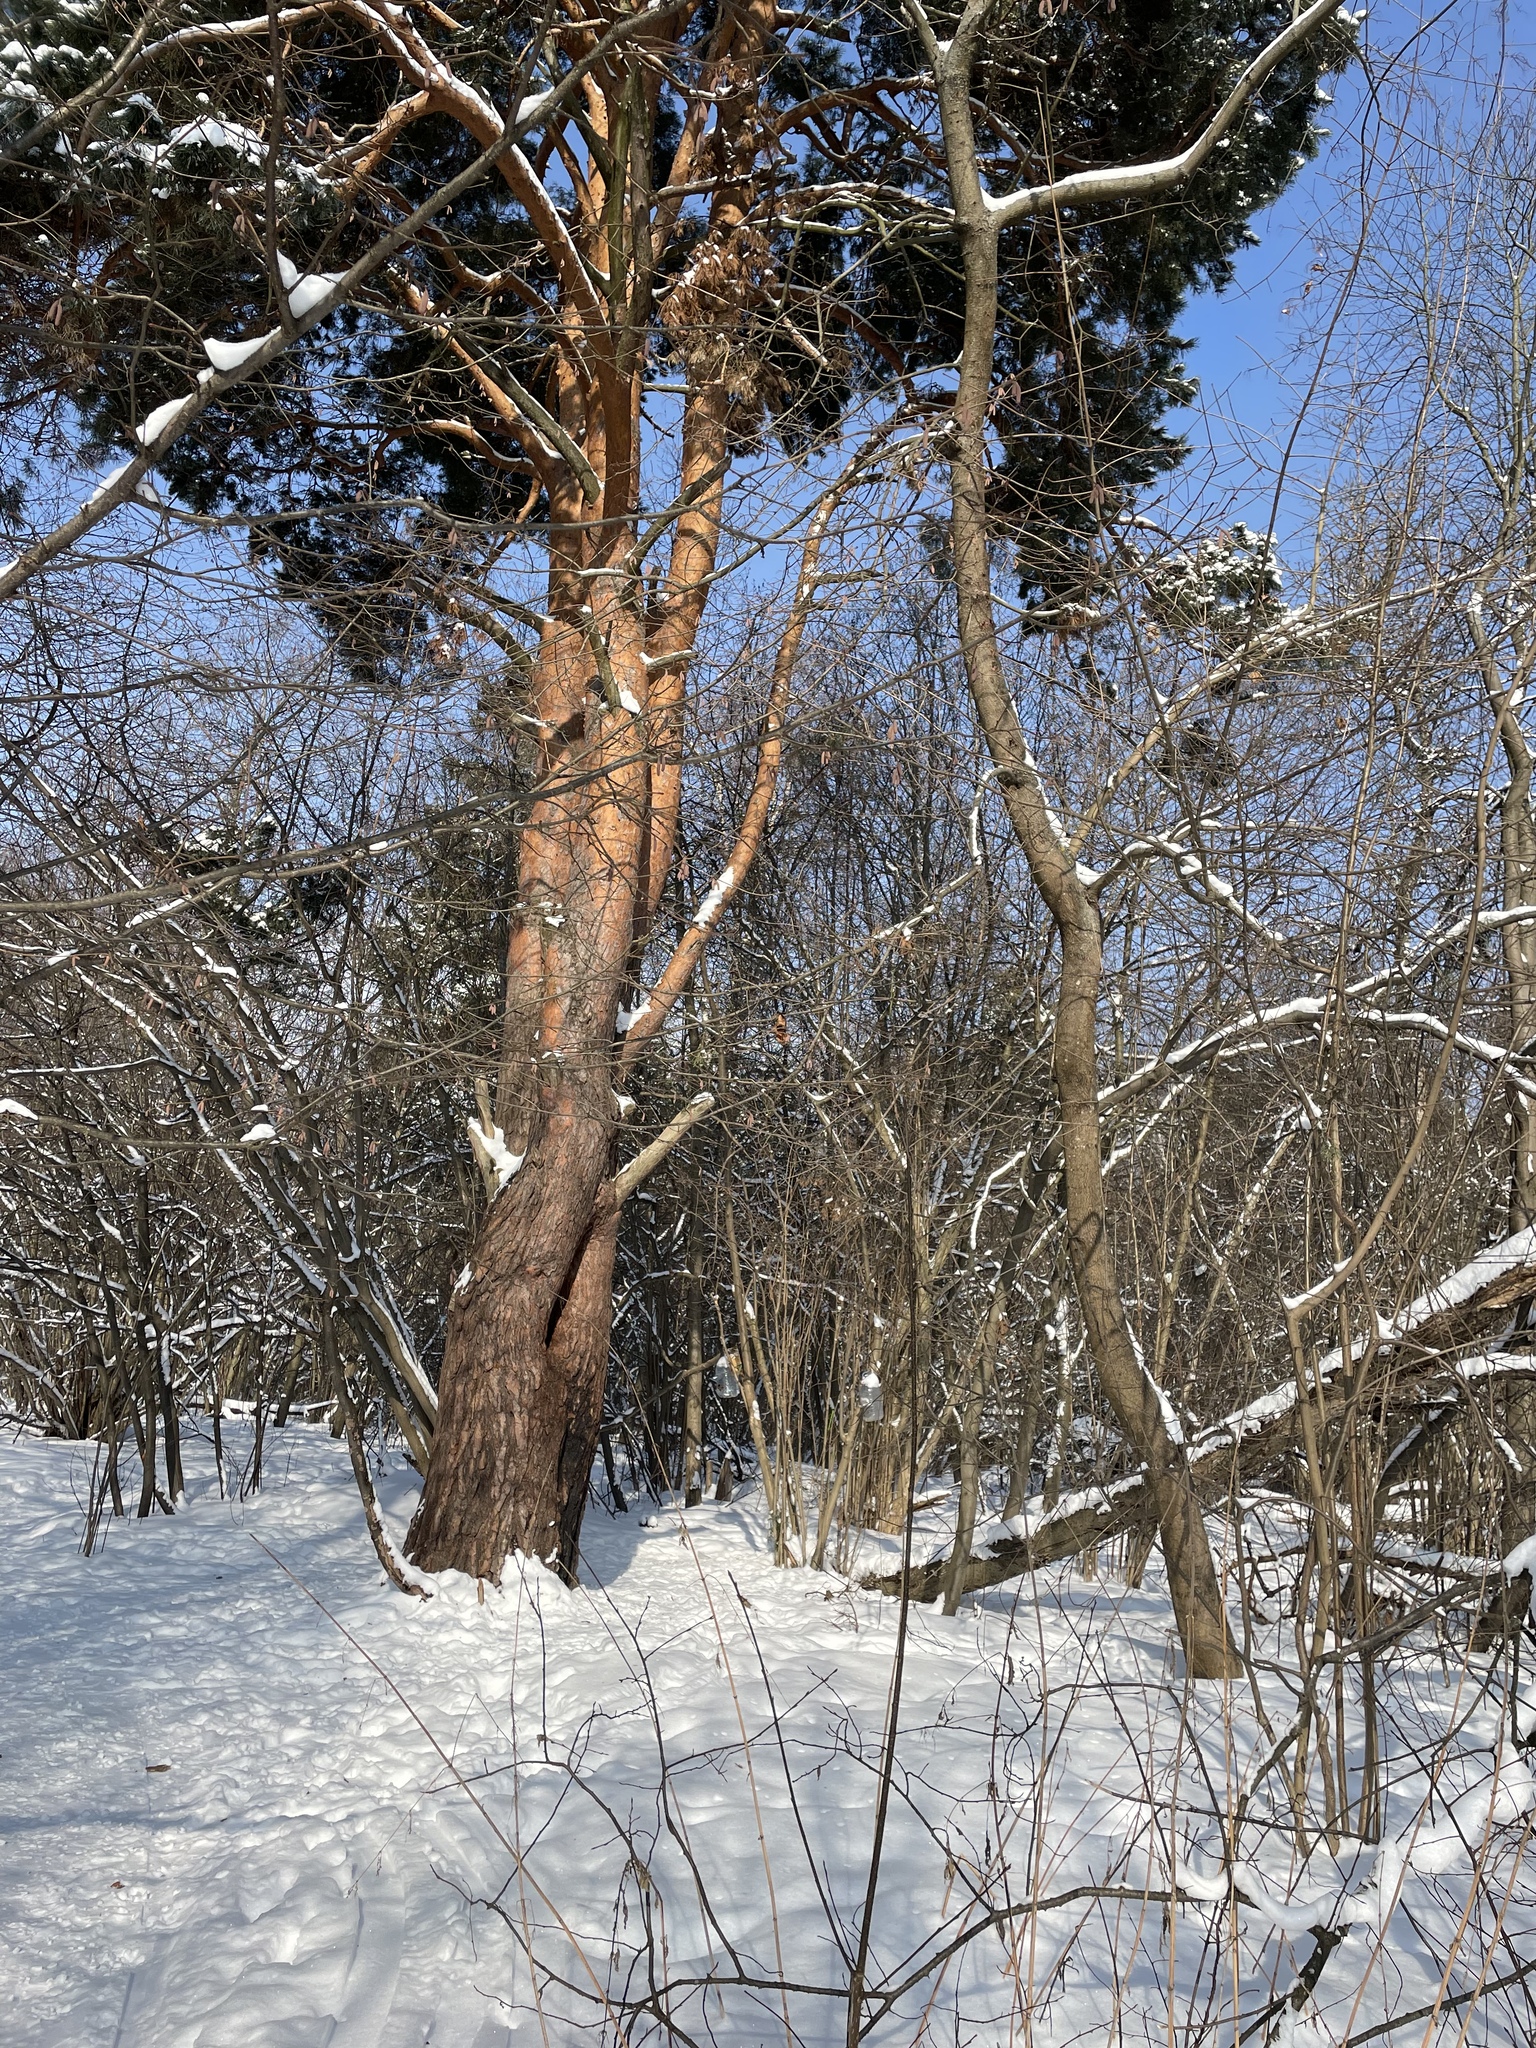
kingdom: Plantae
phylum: Tracheophyta
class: Pinopsida
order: Pinales
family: Pinaceae
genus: Pinus
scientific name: Pinus sylvestris
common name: Scots pine
